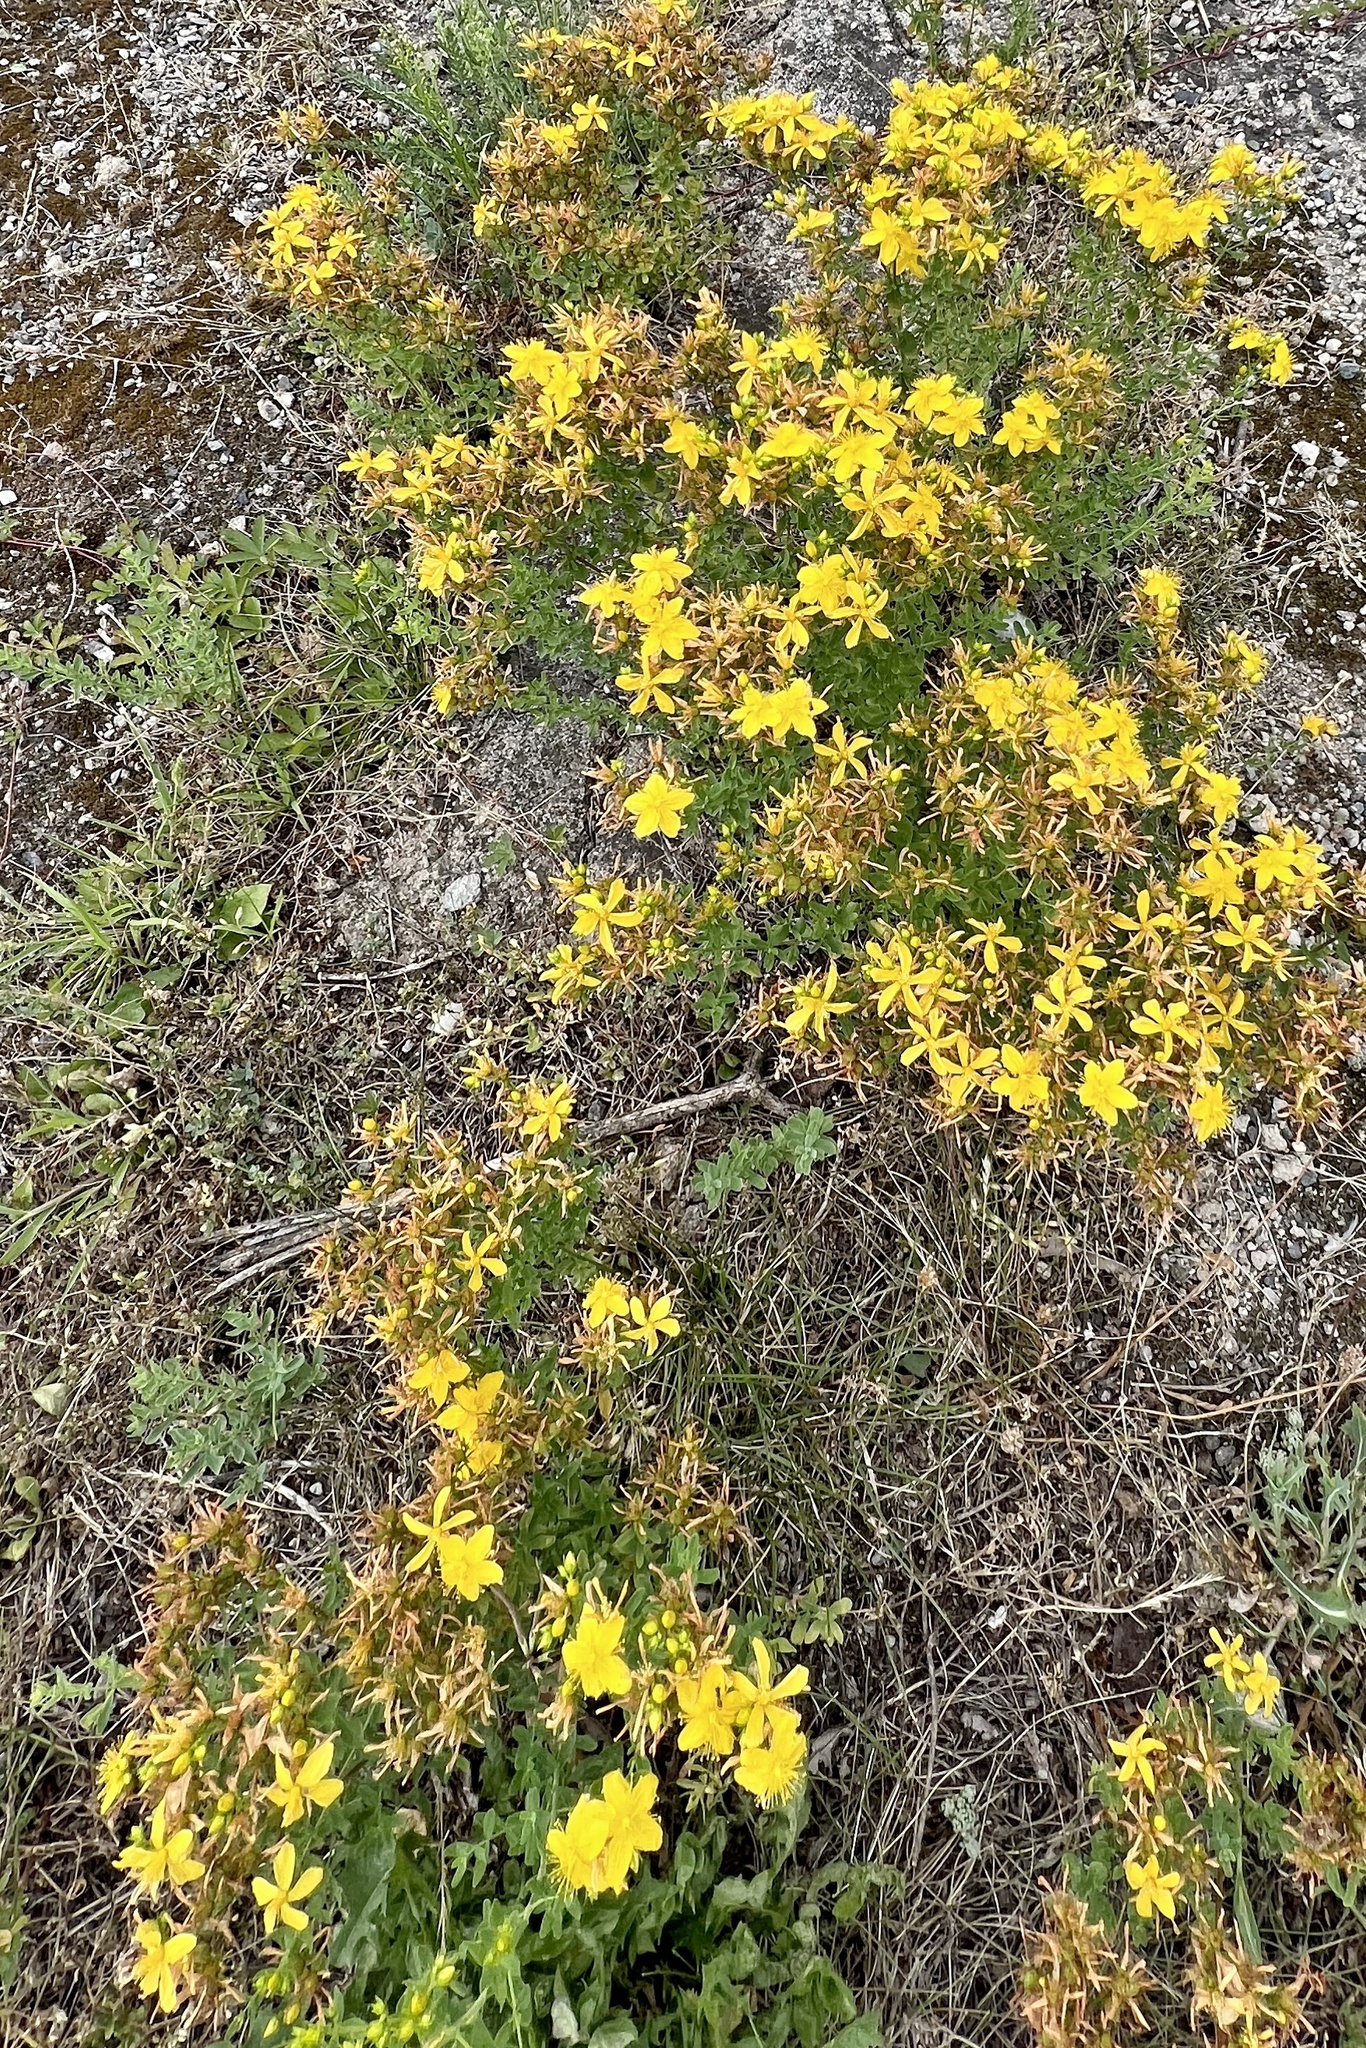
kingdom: Plantae
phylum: Tracheophyta
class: Magnoliopsida
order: Malpighiales
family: Hypericaceae
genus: Hypericum
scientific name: Hypericum perforatum
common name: Common st. johnswort
